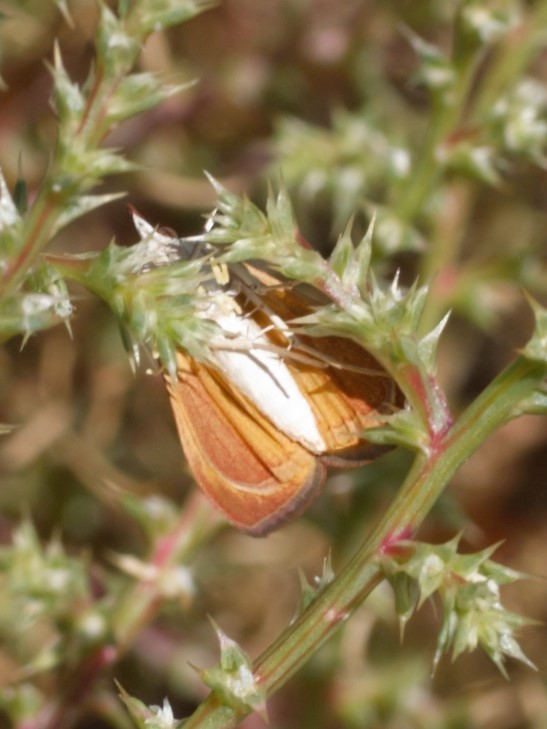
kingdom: Animalia
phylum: Arthropoda
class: Insecta
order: Lepidoptera
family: Crambidae
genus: Uresiphita
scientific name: Uresiphita reversalis
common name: Genista broom moth
